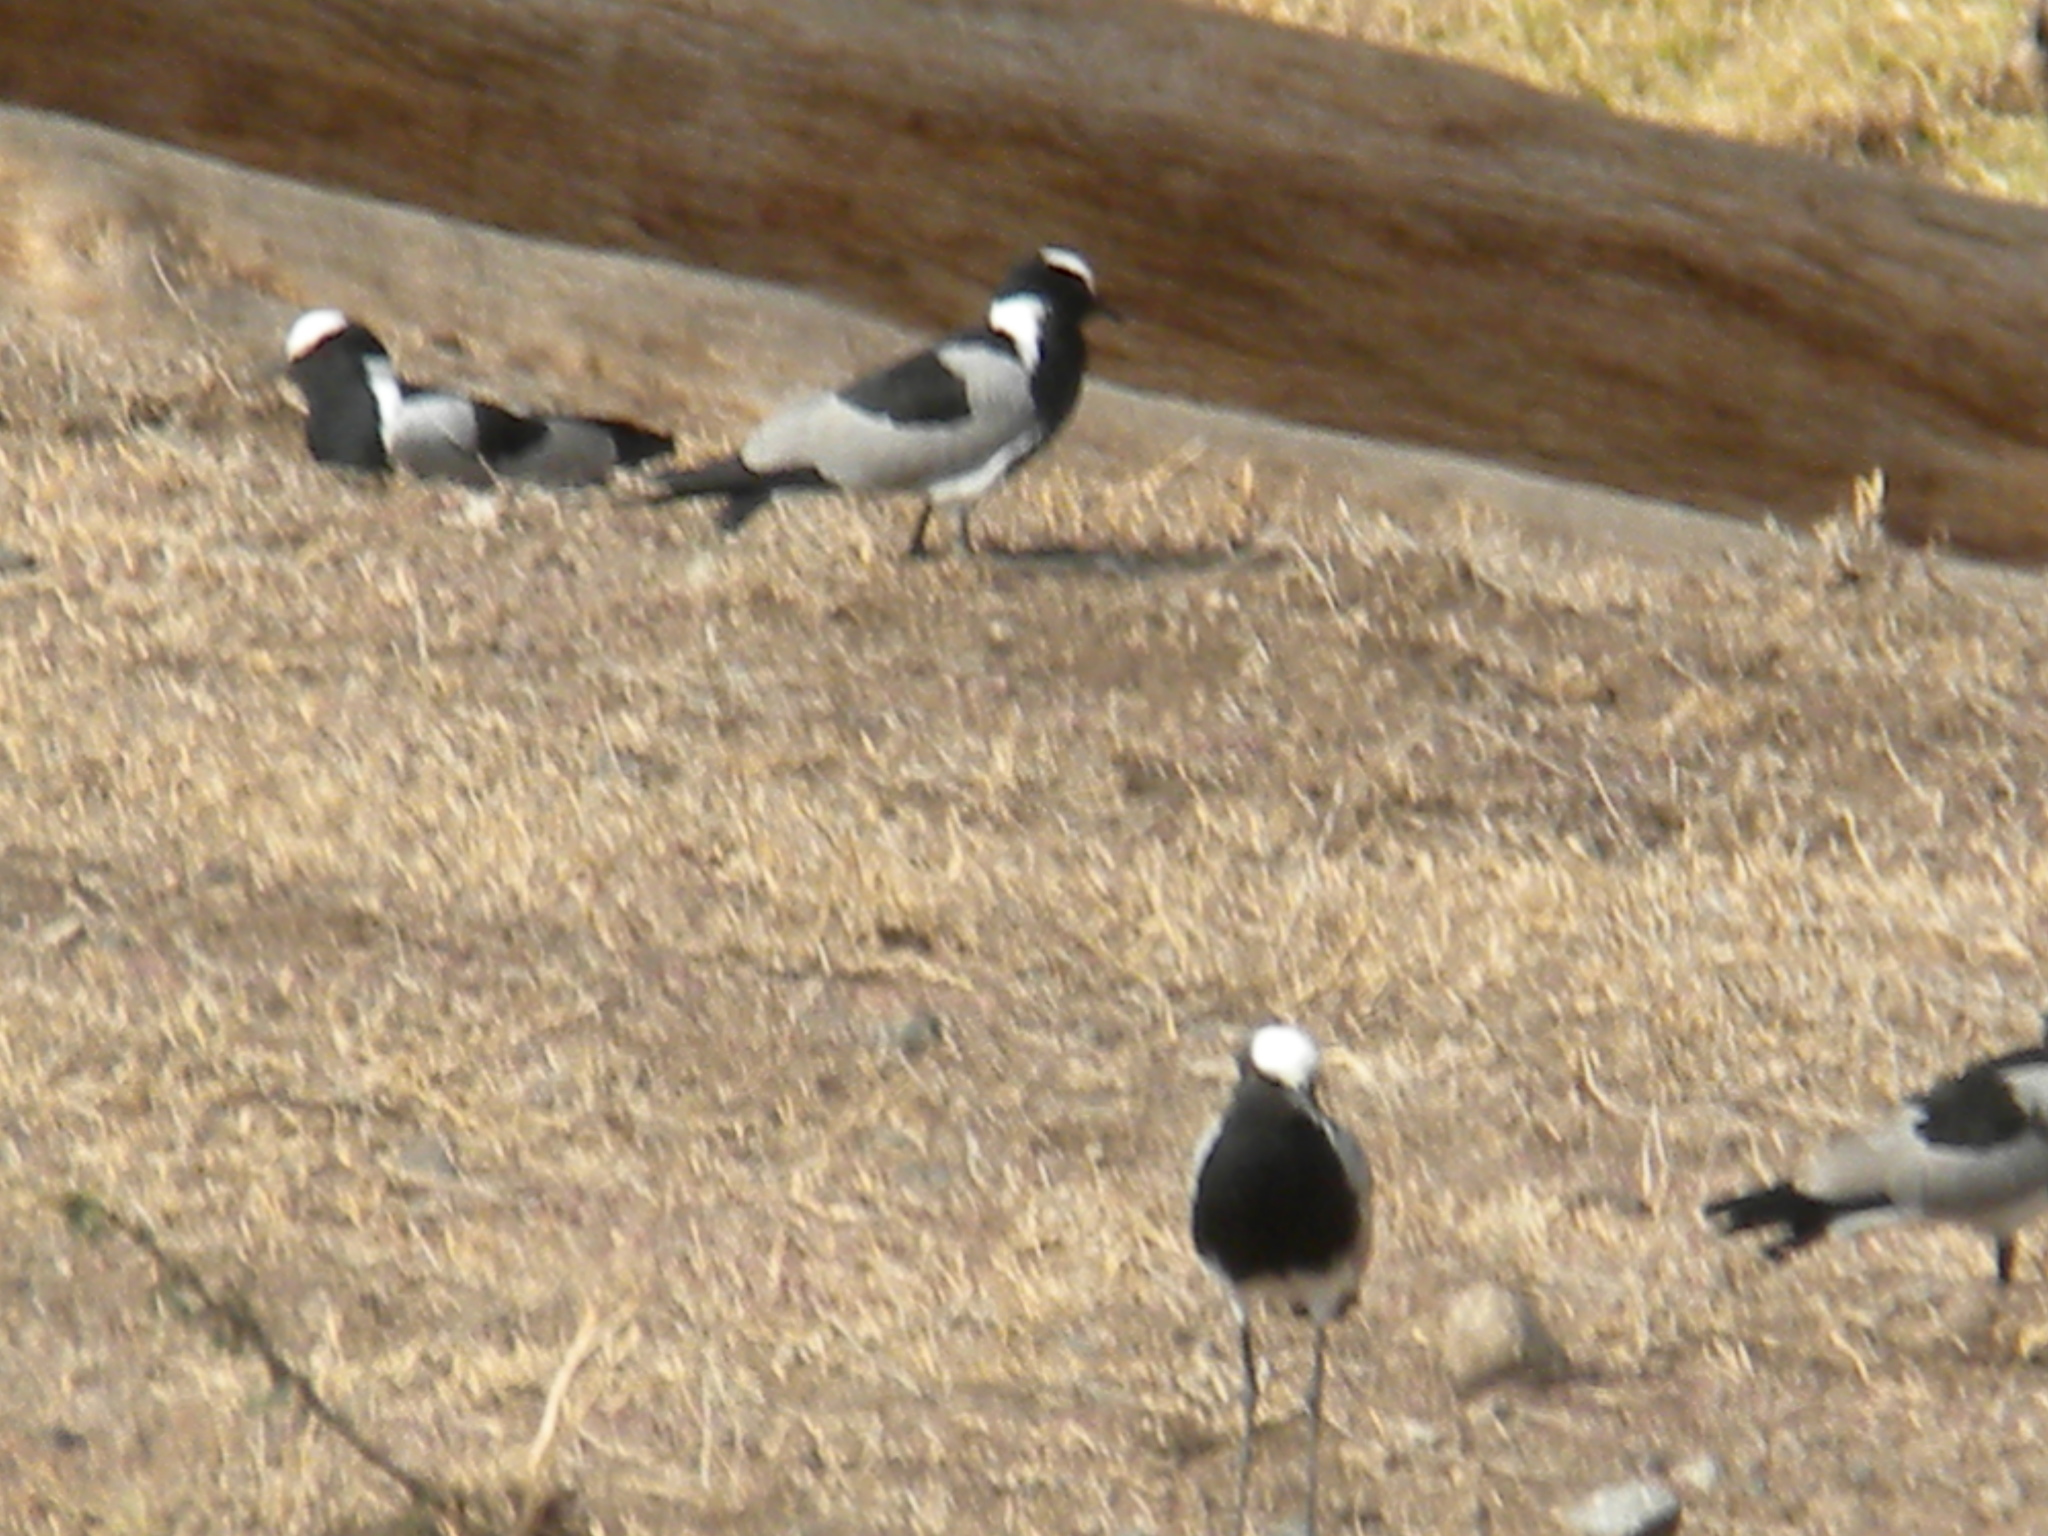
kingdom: Animalia
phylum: Chordata
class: Aves
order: Charadriiformes
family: Charadriidae
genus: Vanellus
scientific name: Vanellus armatus
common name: Blacksmith lapwing
